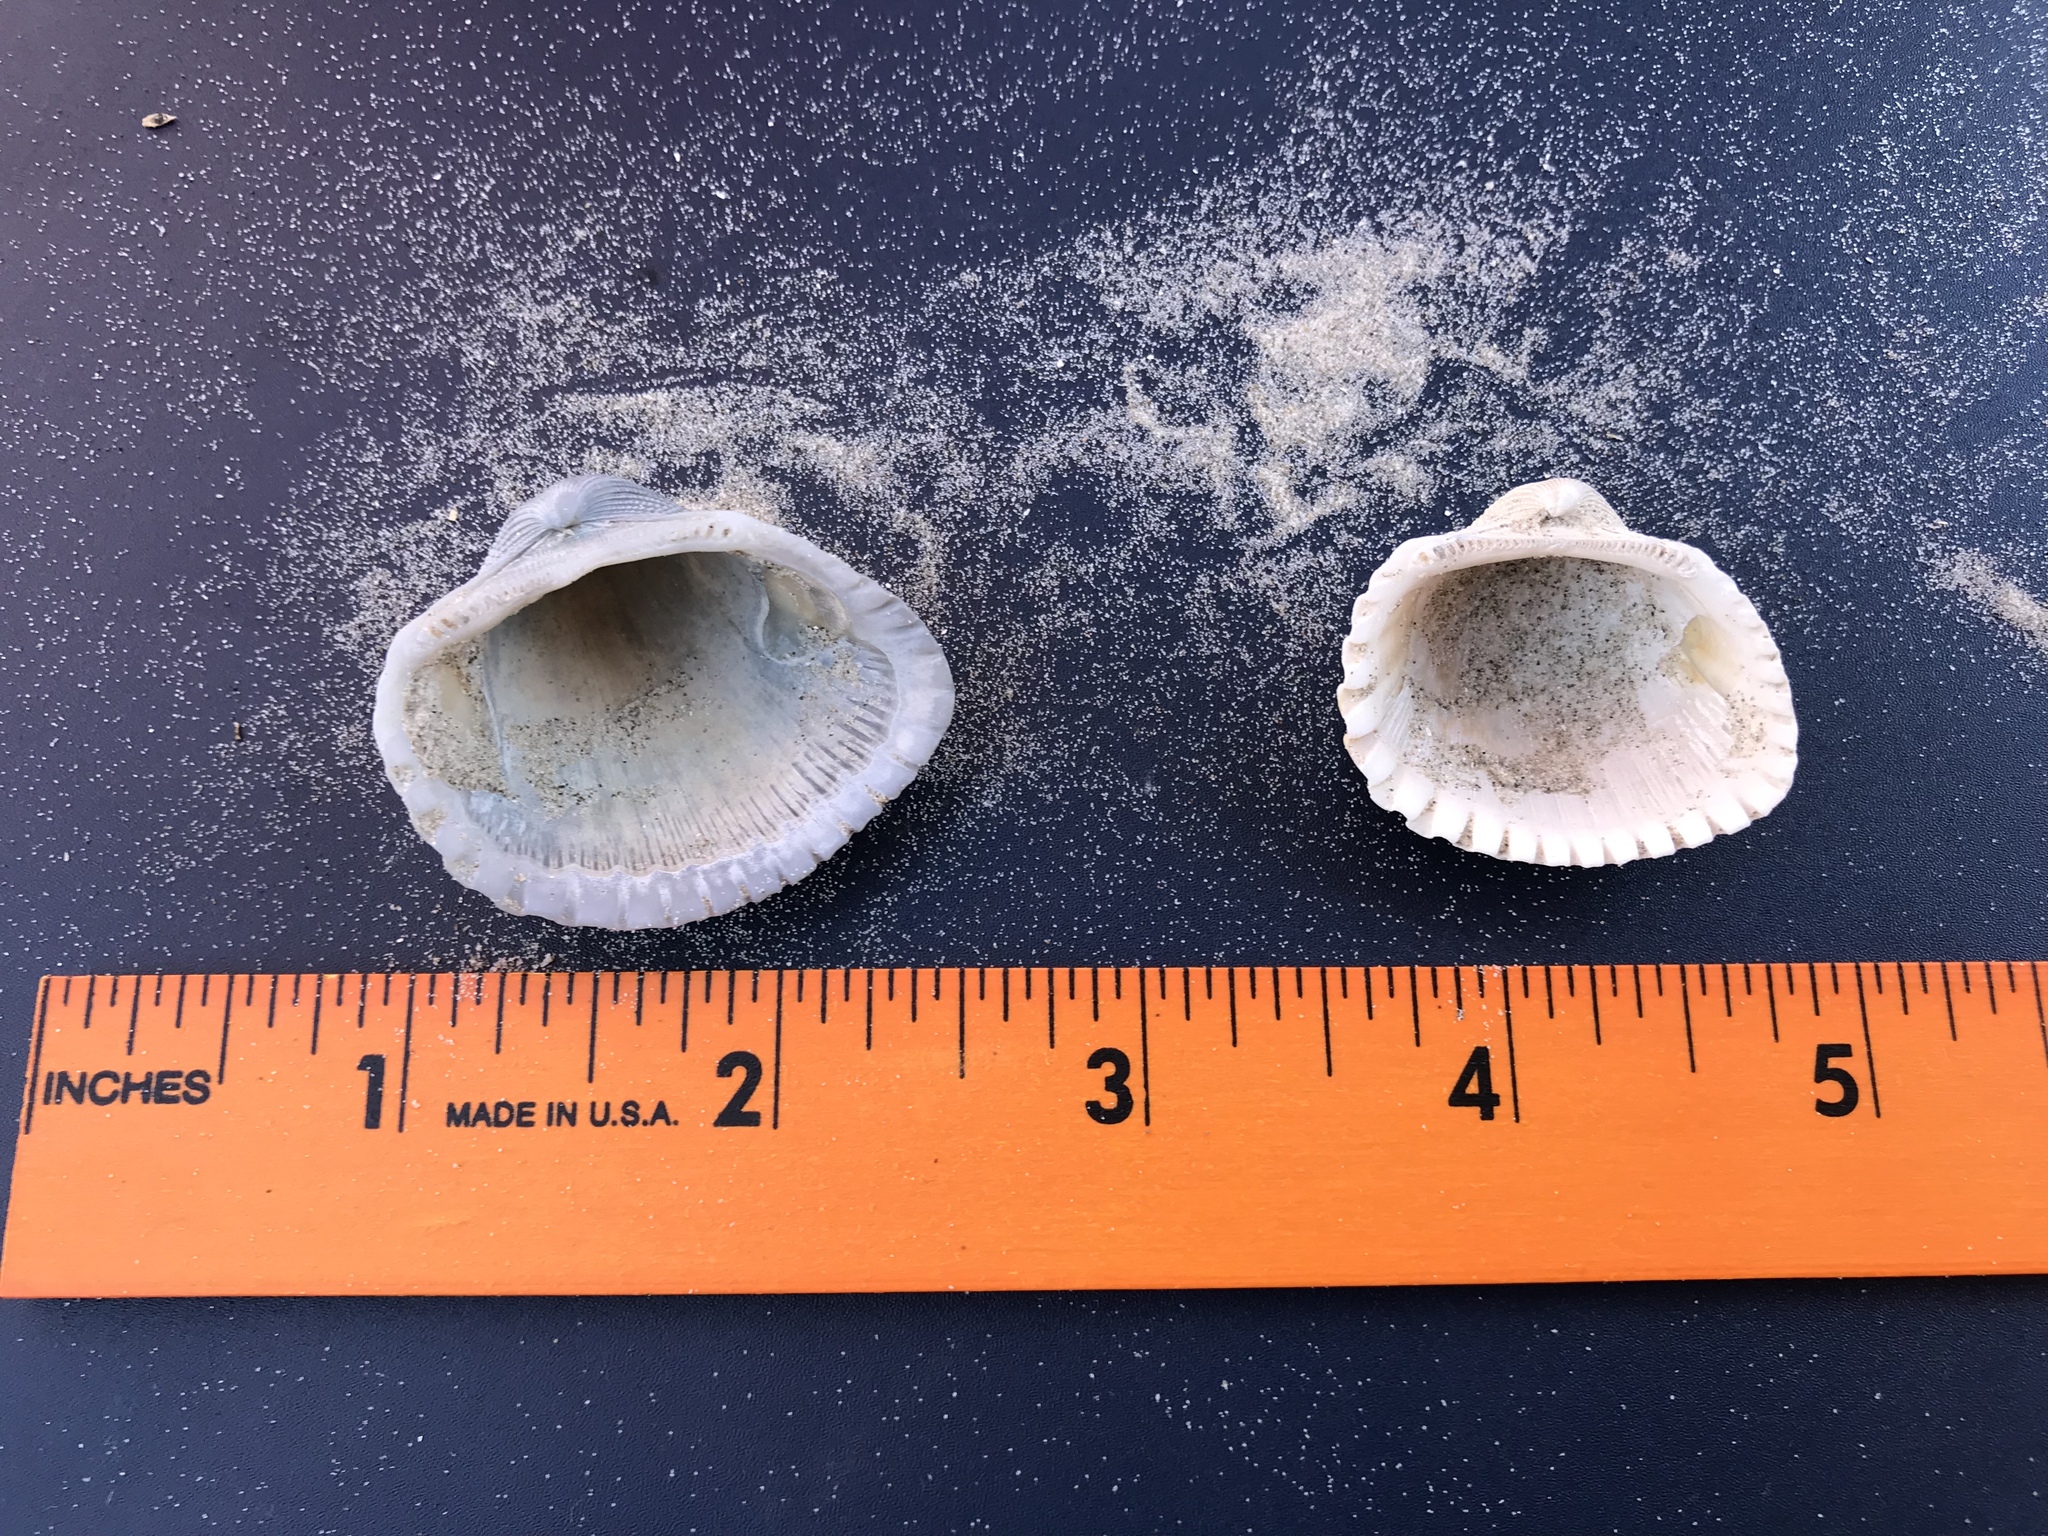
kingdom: Animalia
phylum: Mollusca
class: Bivalvia
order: Arcida
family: Arcidae
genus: Anadara
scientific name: Anadara brasiliana
